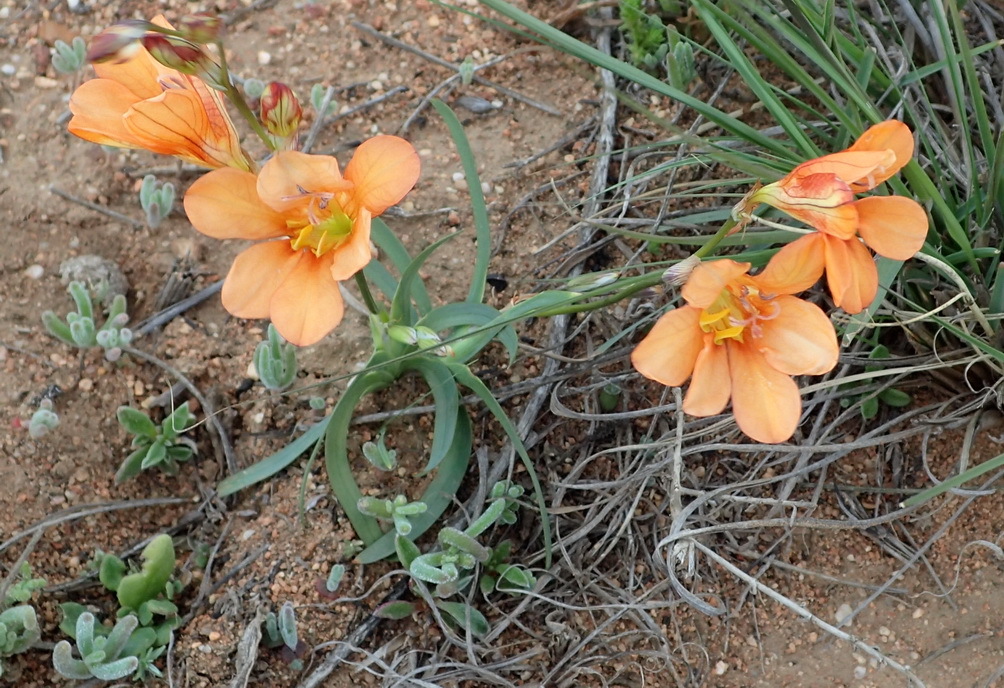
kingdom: Plantae
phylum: Tracheophyta
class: Liliopsida
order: Asparagales
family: Iridaceae
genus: Tritonia
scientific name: Tritonia securigera
